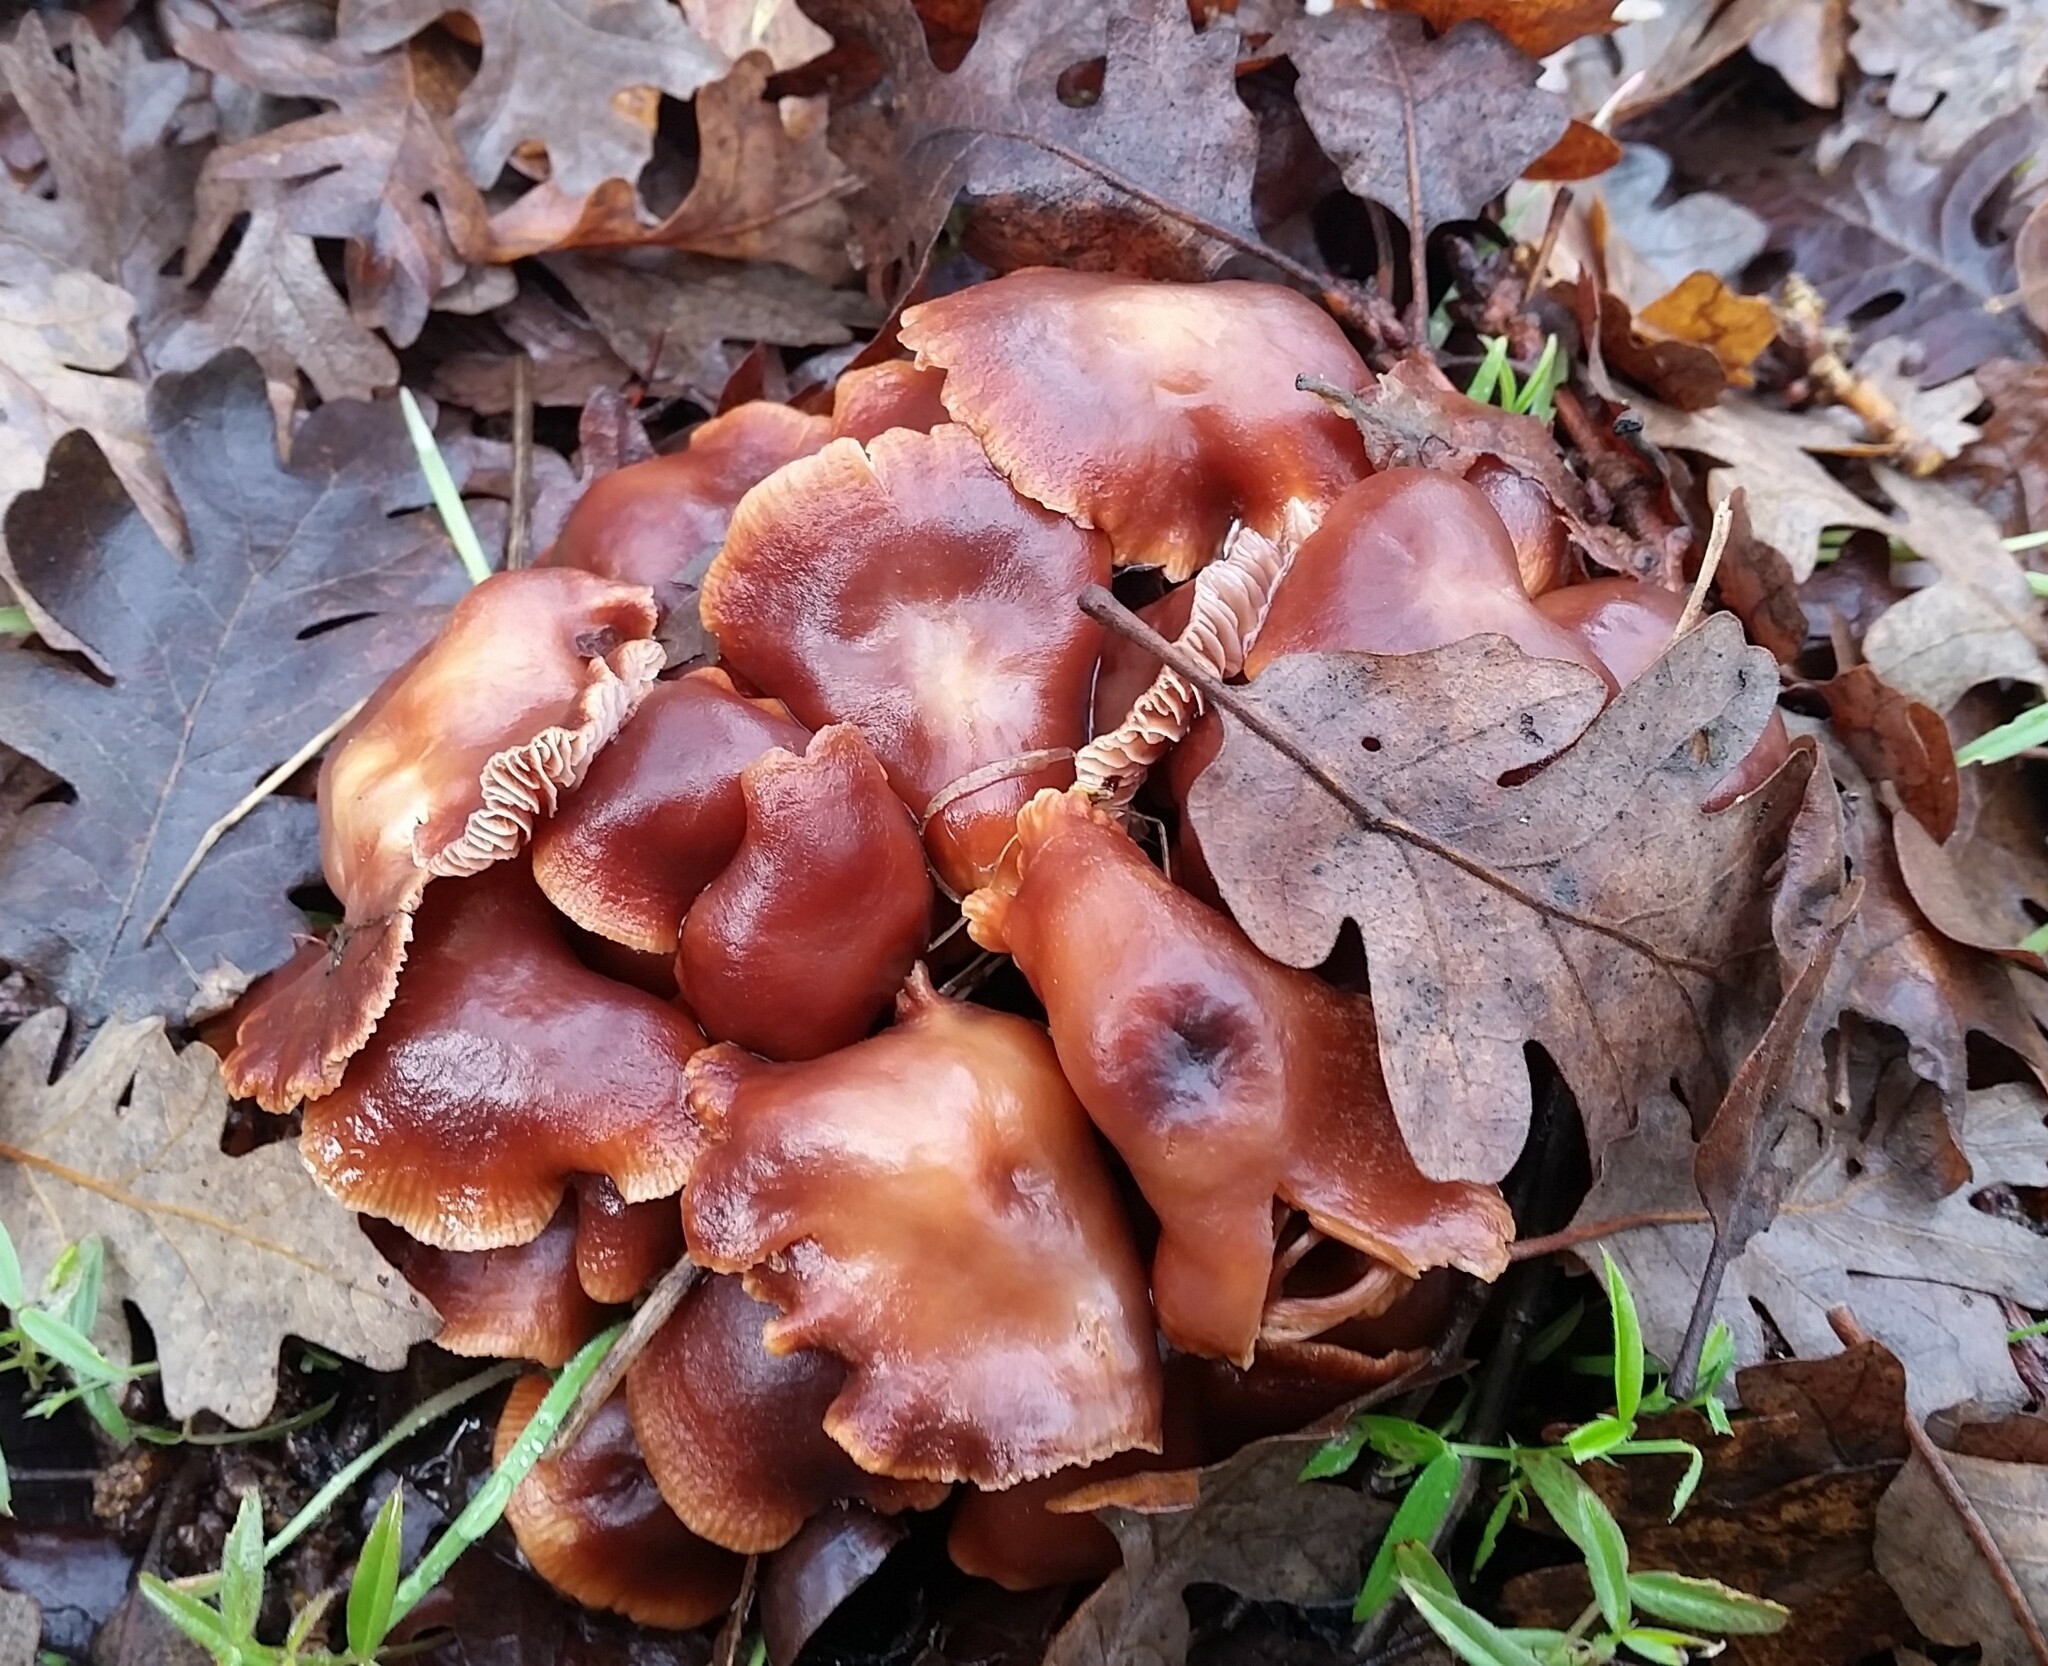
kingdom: Fungi
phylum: Basidiomycota
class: Agaricomycetes
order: Agaricales
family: Omphalotaceae
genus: Gymnopus
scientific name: Gymnopus brassicolens
